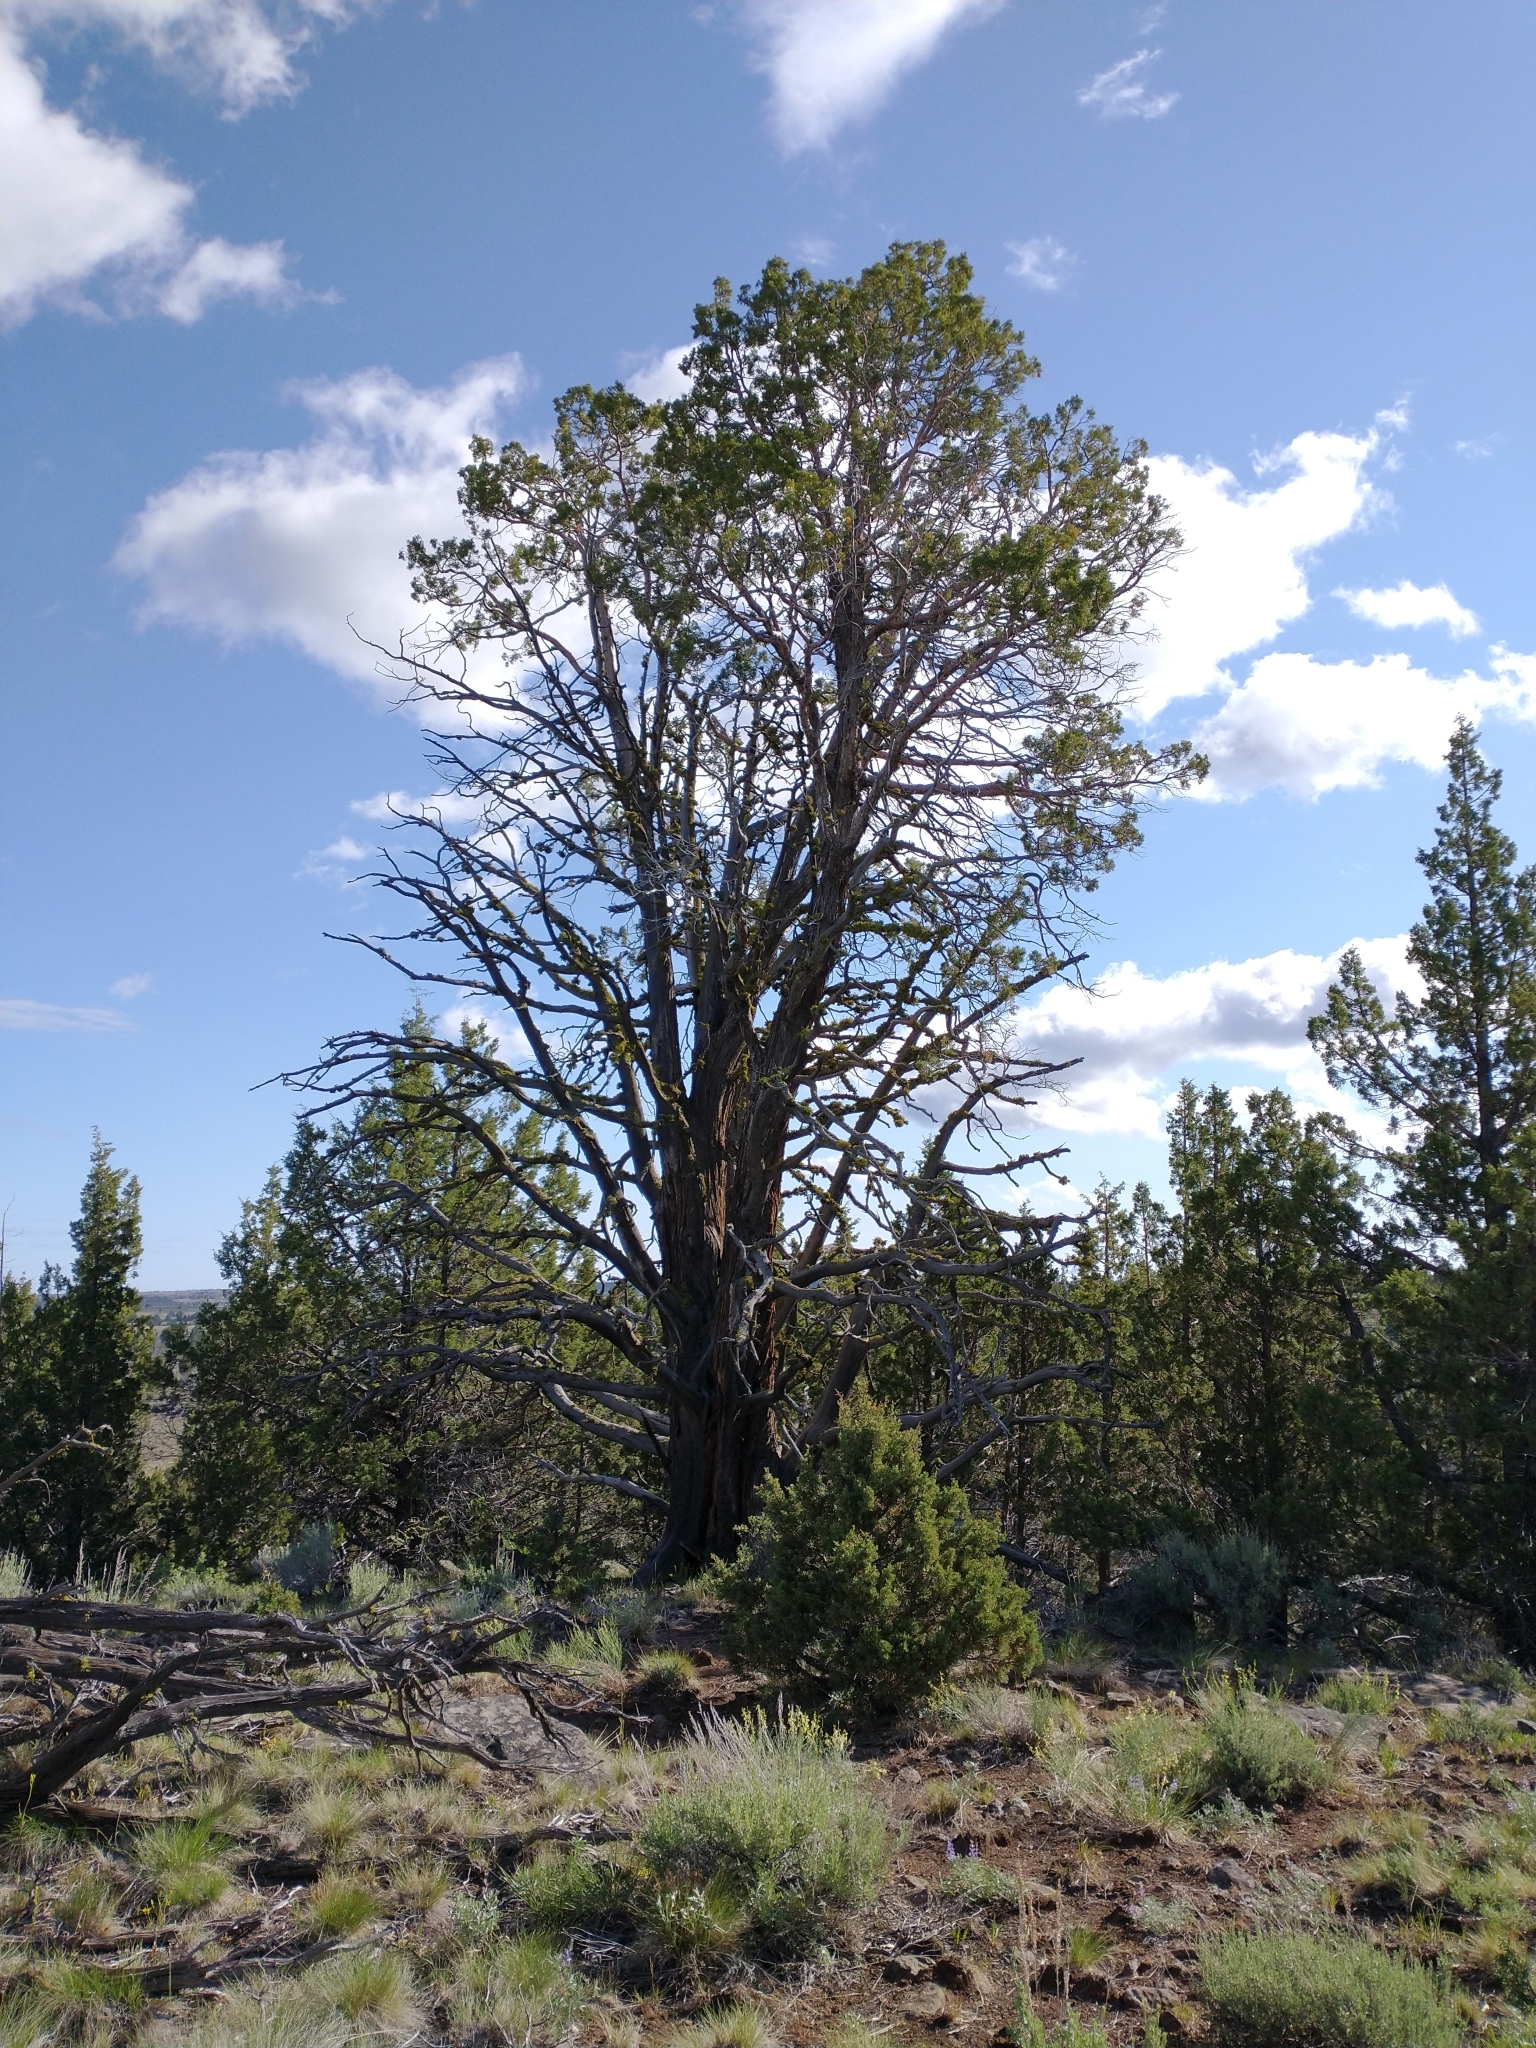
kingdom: Plantae
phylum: Tracheophyta
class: Pinopsida
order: Pinales
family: Cupressaceae
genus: Juniperus
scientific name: Juniperus occidentalis
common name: Western juniper
